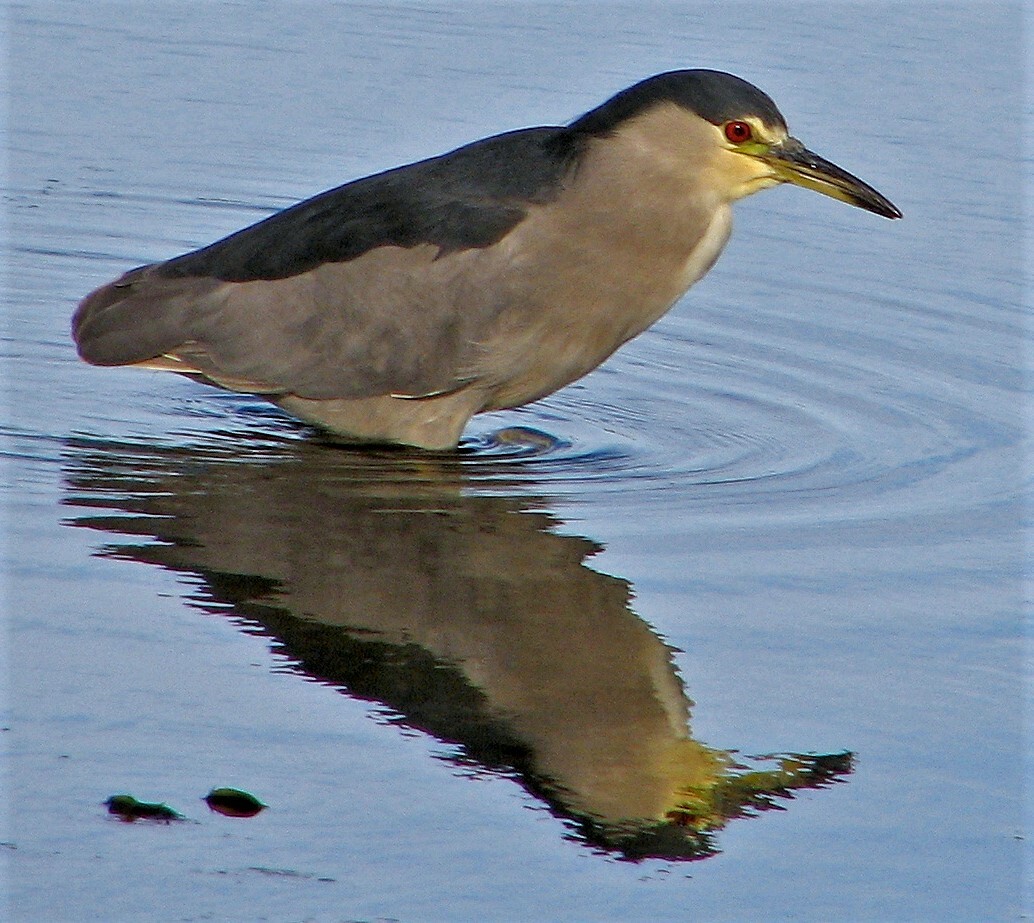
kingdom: Animalia
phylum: Chordata
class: Aves
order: Pelecaniformes
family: Ardeidae
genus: Nycticorax
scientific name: Nycticorax nycticorax
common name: Black-crowned night heron
